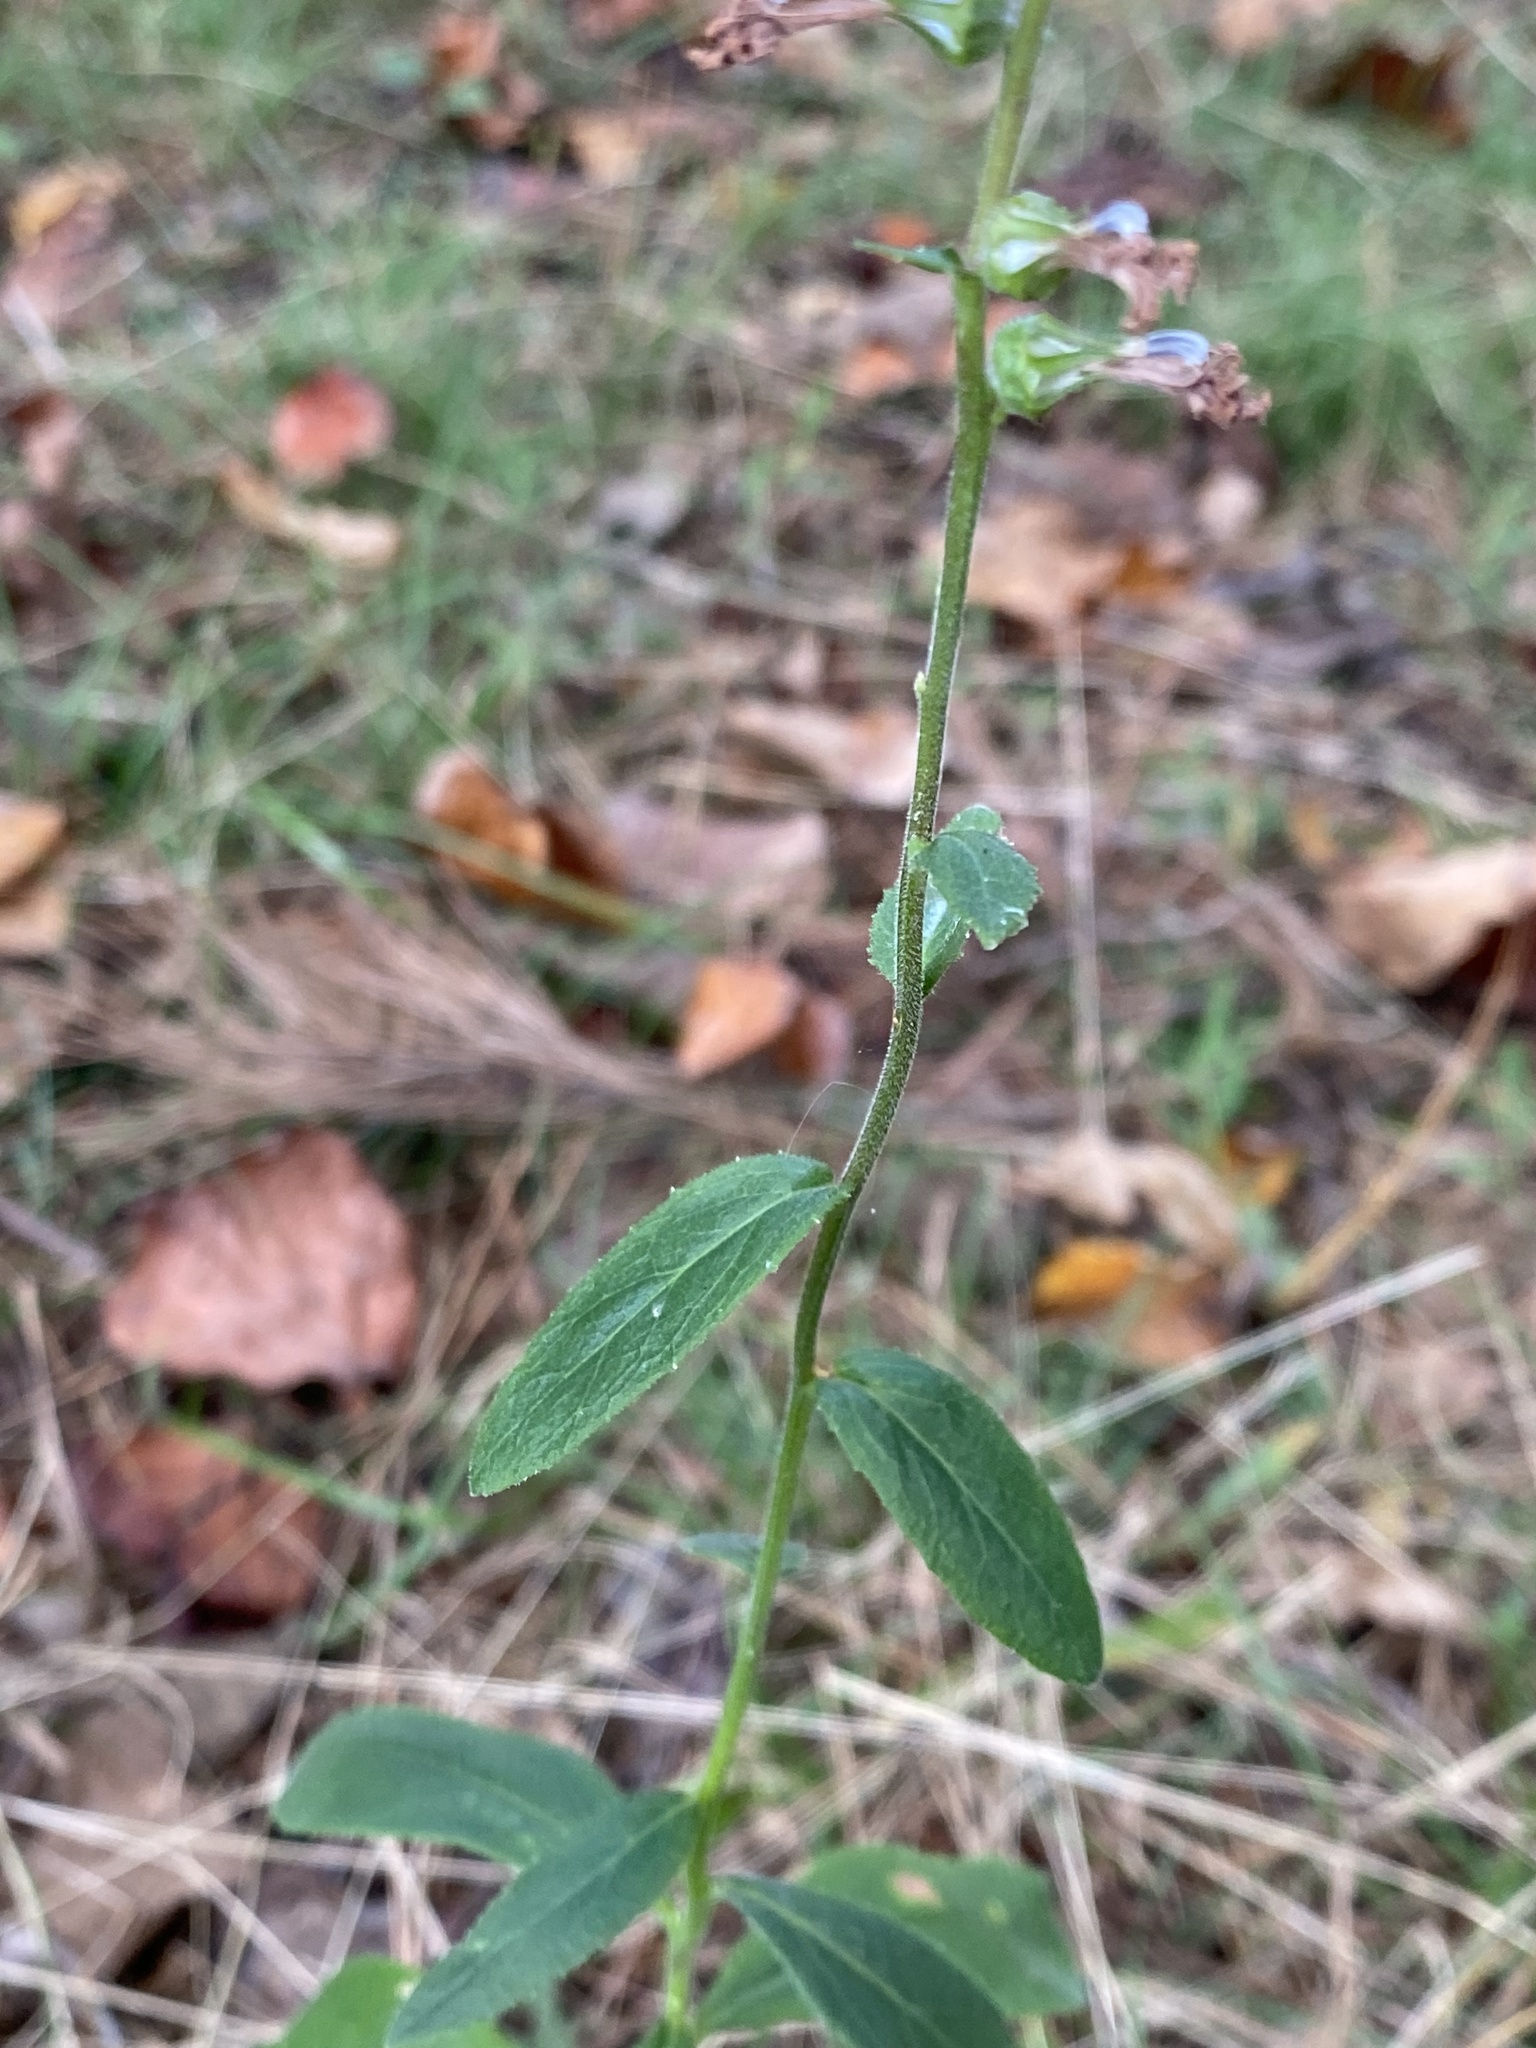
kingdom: Plantae
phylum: Tracheophyta
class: Magnoliopsida
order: Asterales
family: Campanulaceae
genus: Lobelia
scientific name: Lobelia puberula
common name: Purple dewdrop
